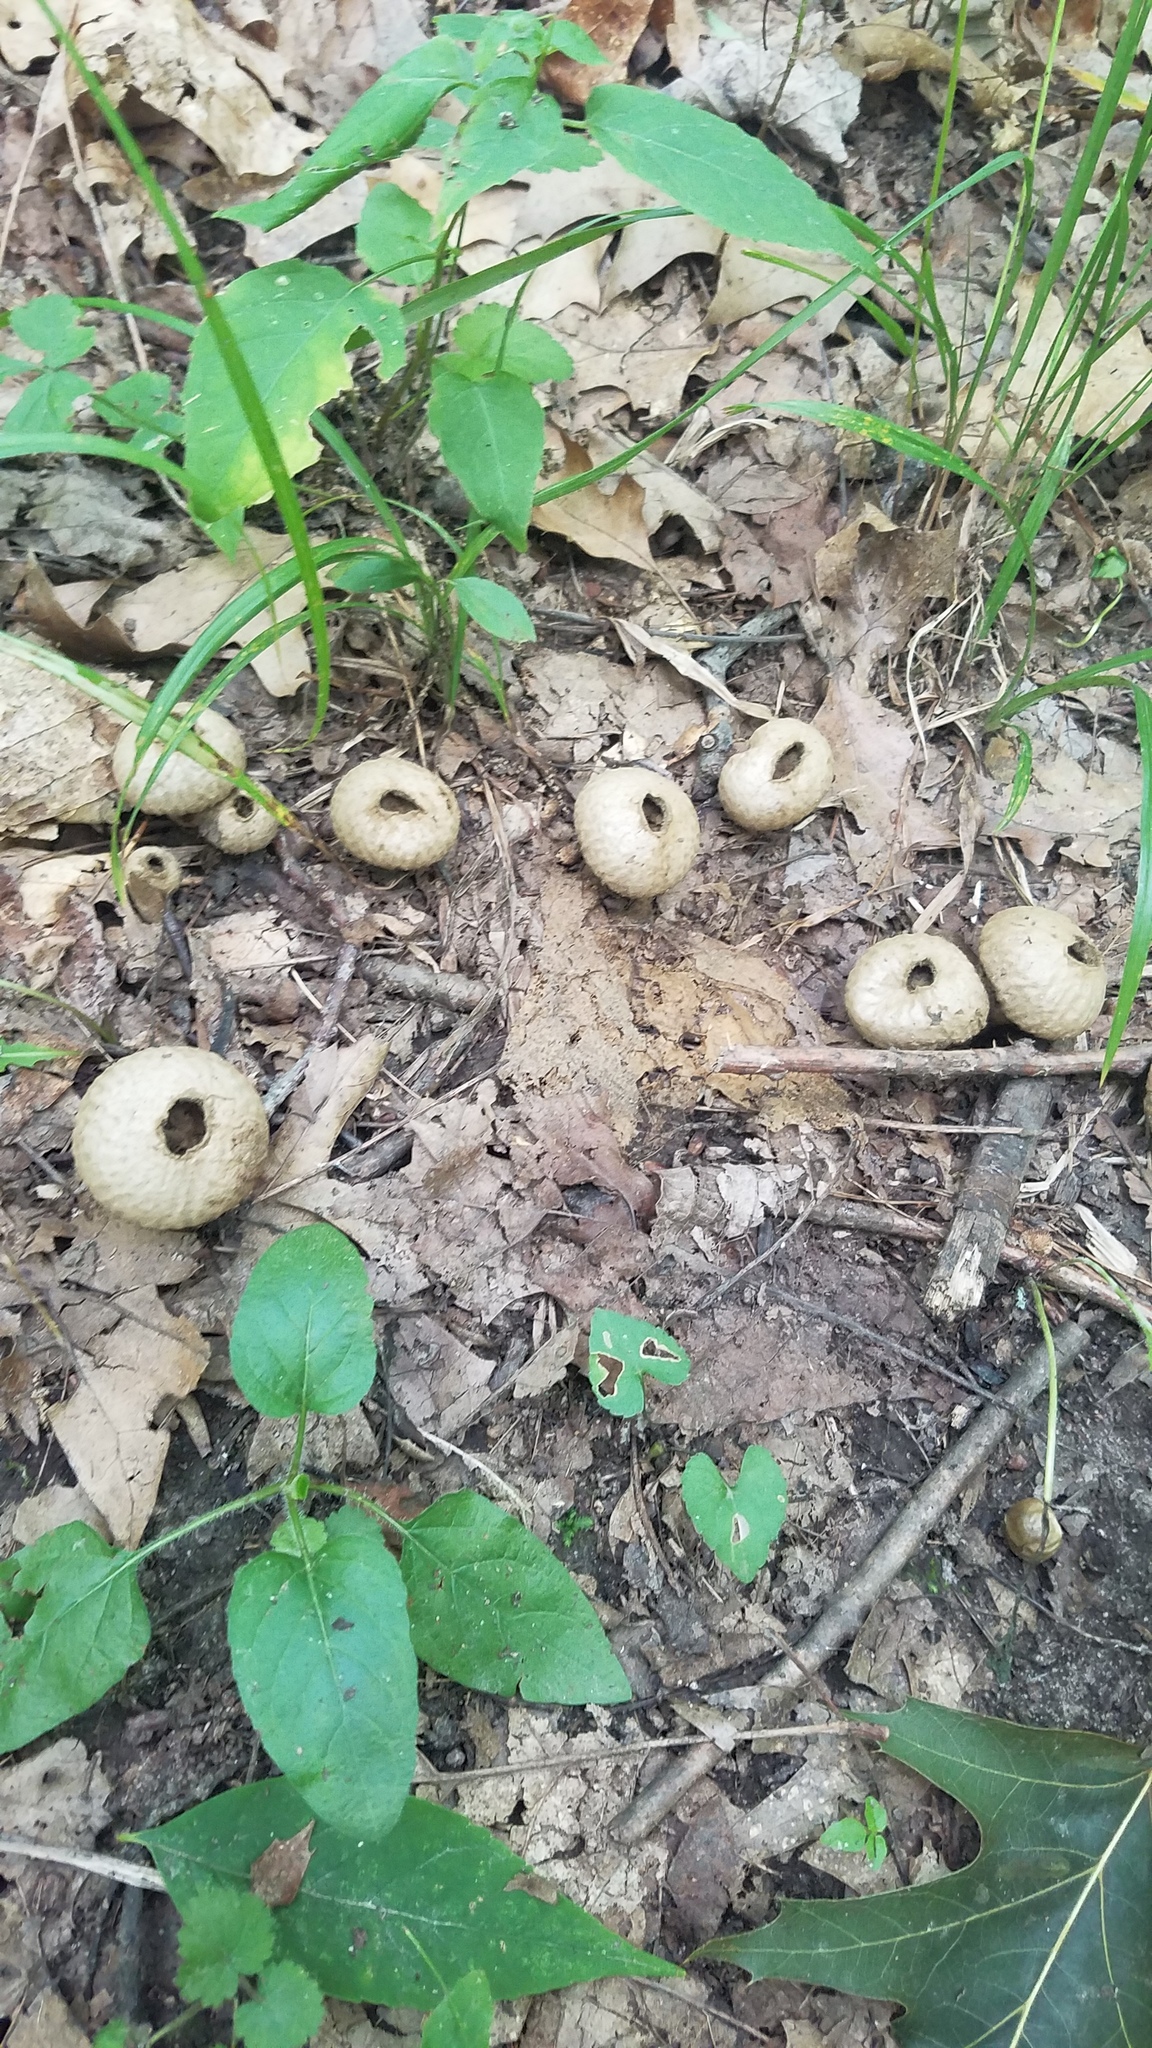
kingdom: Fungi
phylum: Basidiomycota
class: Agaricomycetes
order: Agaricales
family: Lycoperdaceae
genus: Lycoperdon
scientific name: Lycoperdon perlatum
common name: Common puffball
